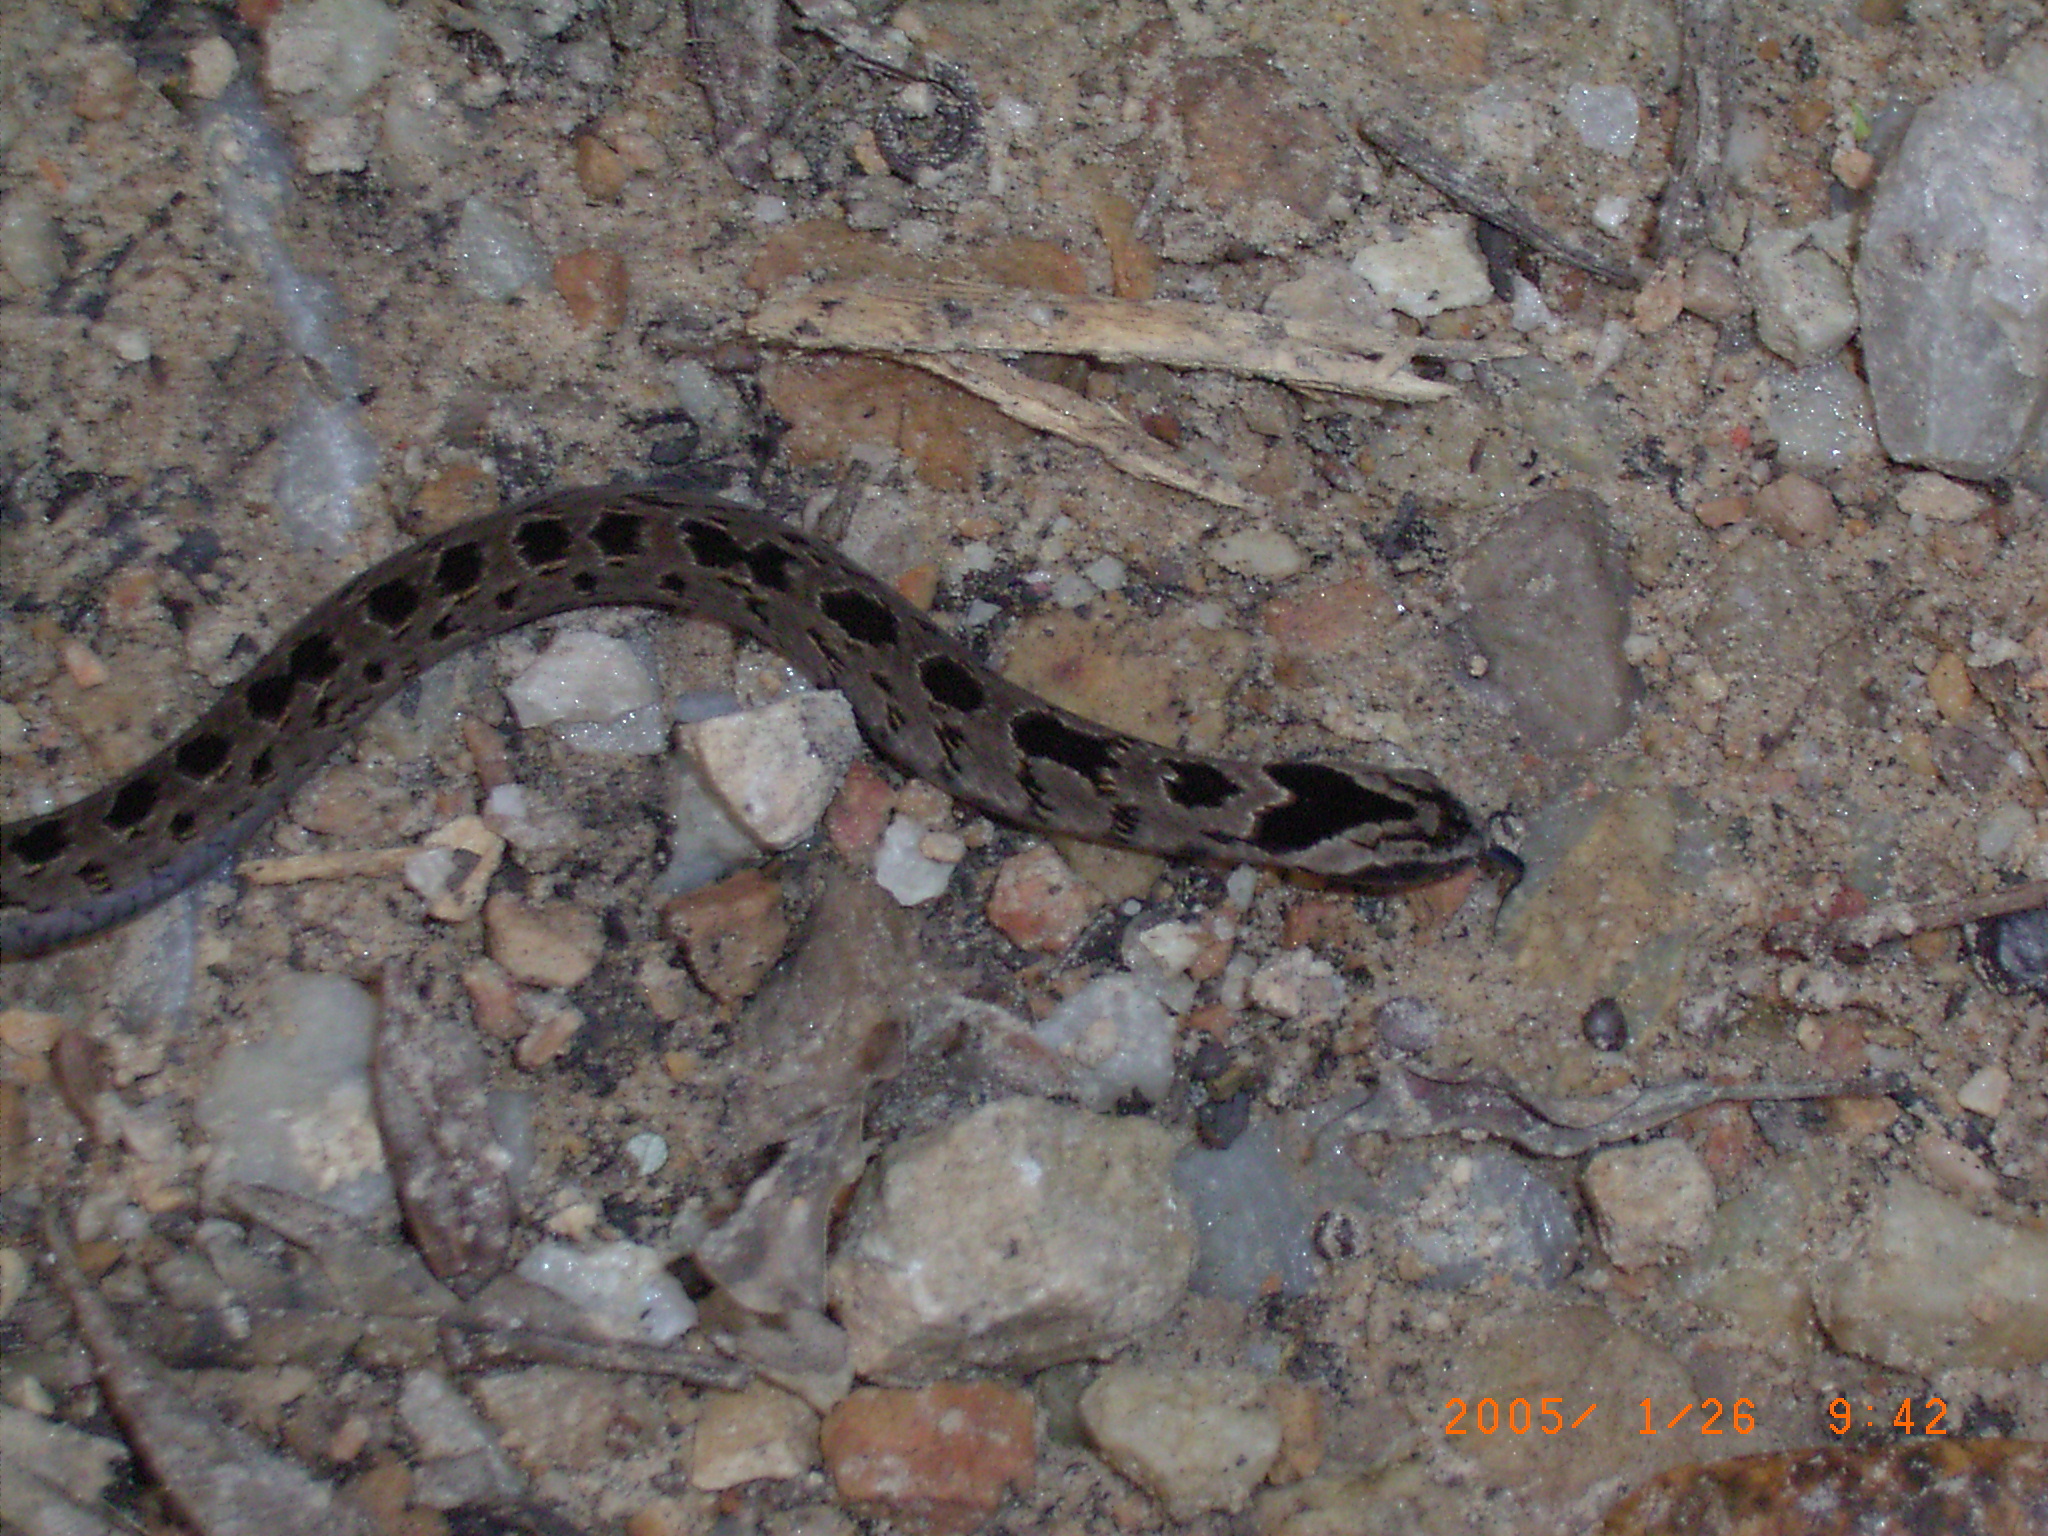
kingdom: Animalia
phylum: Chordata
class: Squamata
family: Viperidae
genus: Causus
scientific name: Causus rhombeatus
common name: Common night adder
